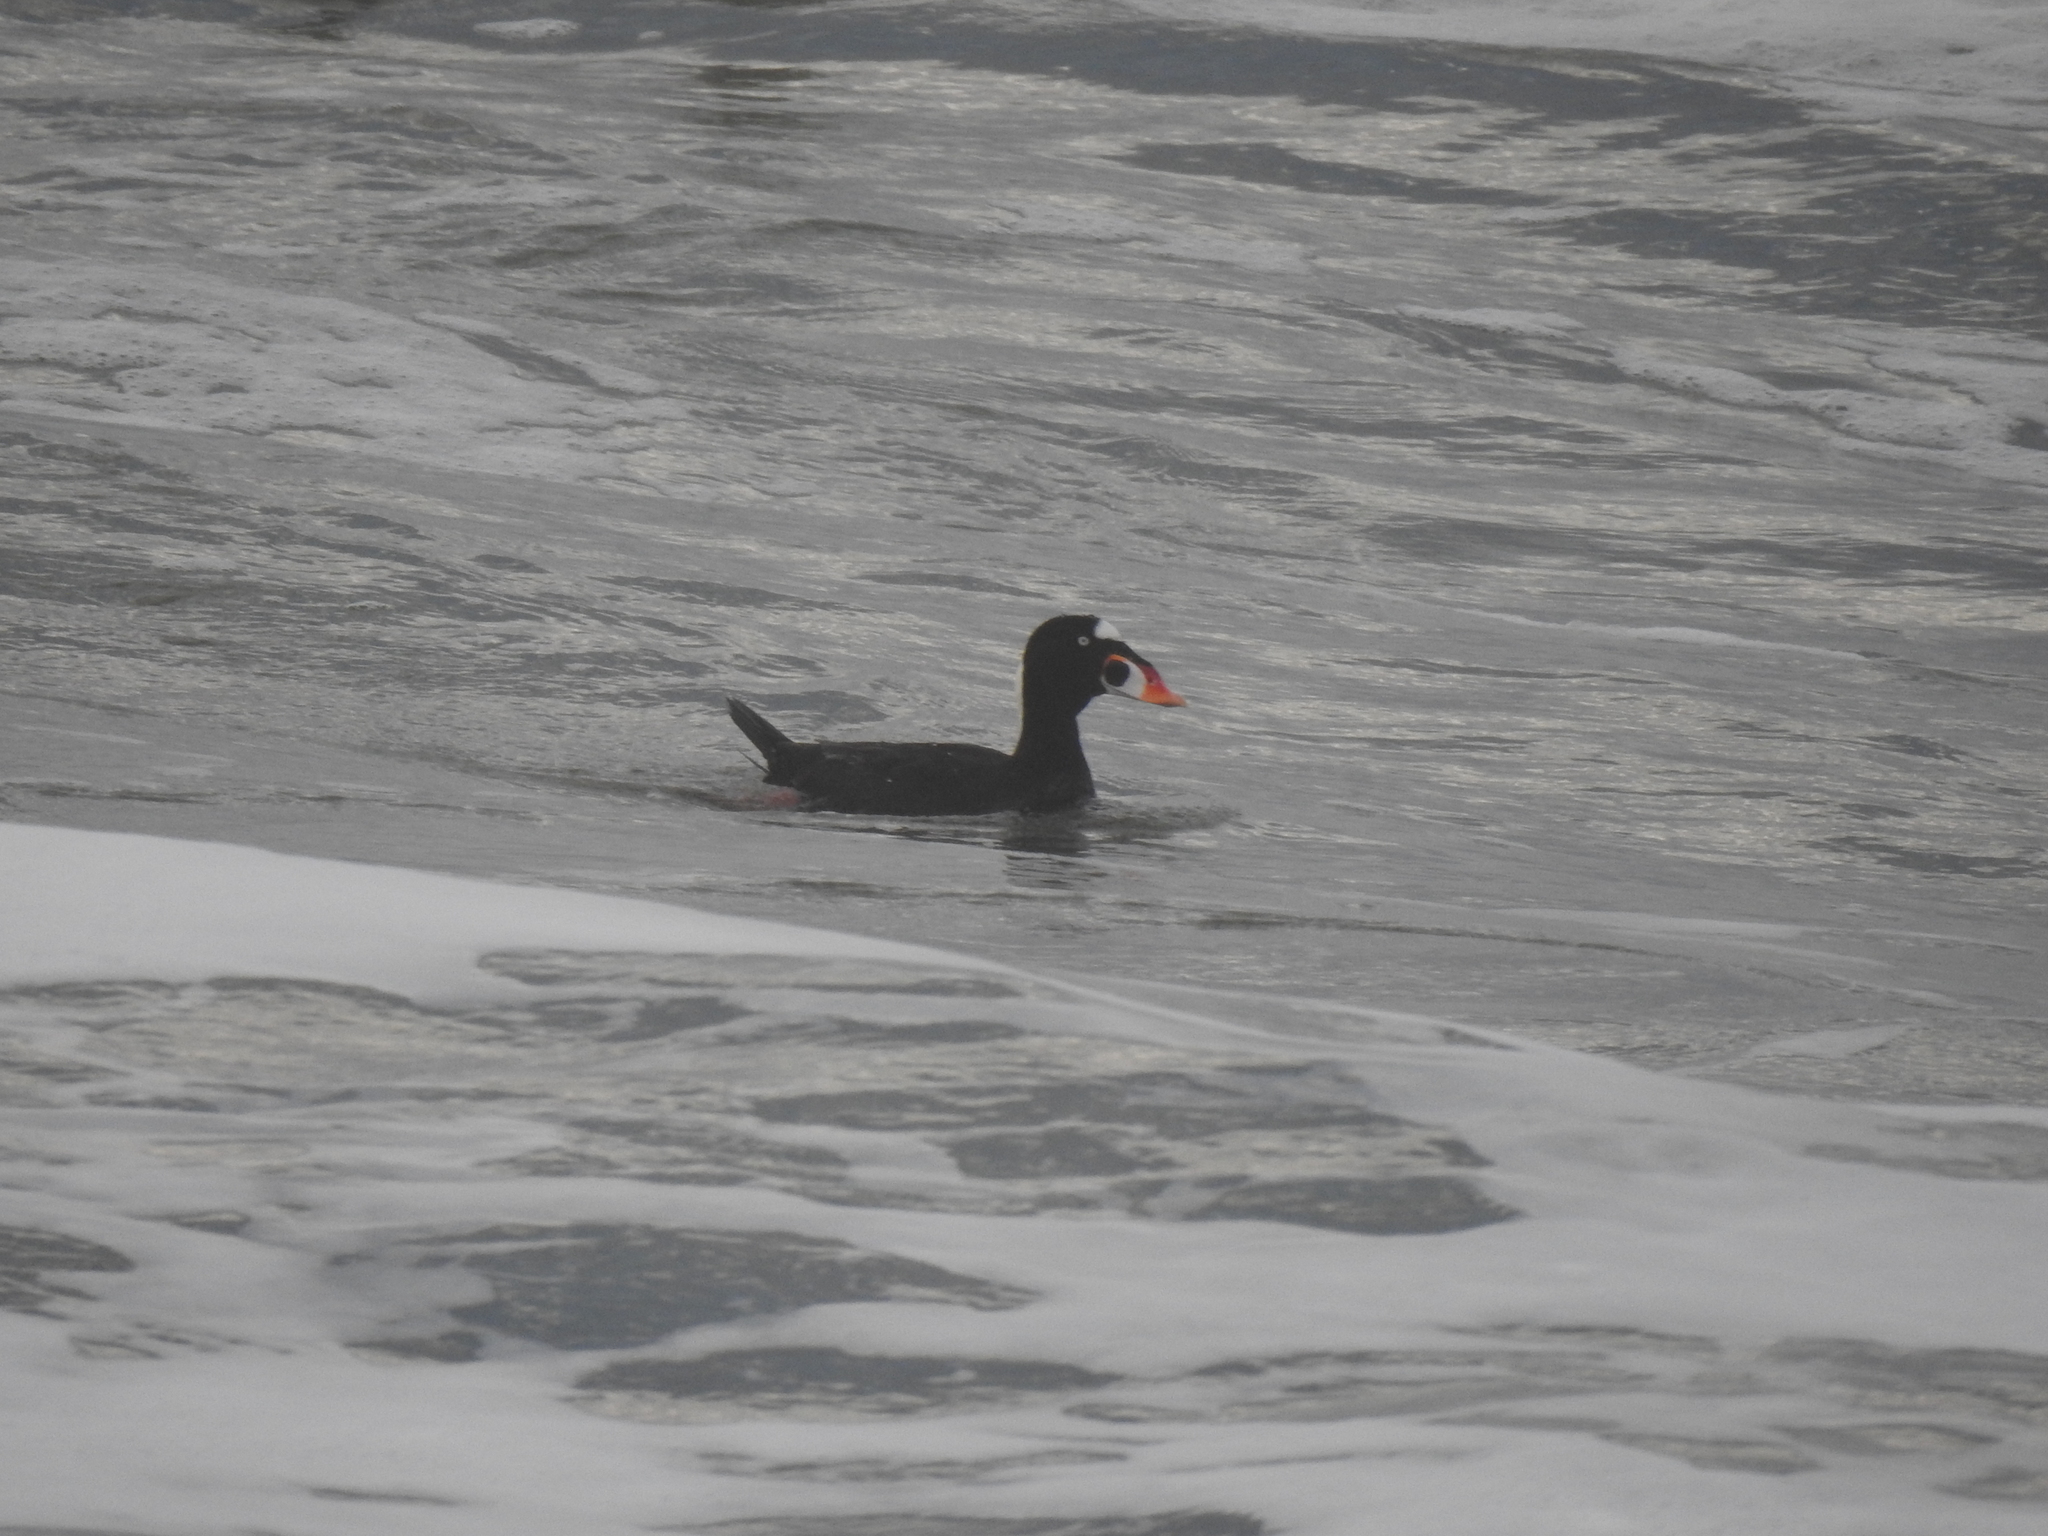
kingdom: Animalia
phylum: Chordata
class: Aves
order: Anseriformes
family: Anatidae
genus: Melanitta
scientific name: Melanitta perspicillata
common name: Surf scoter
